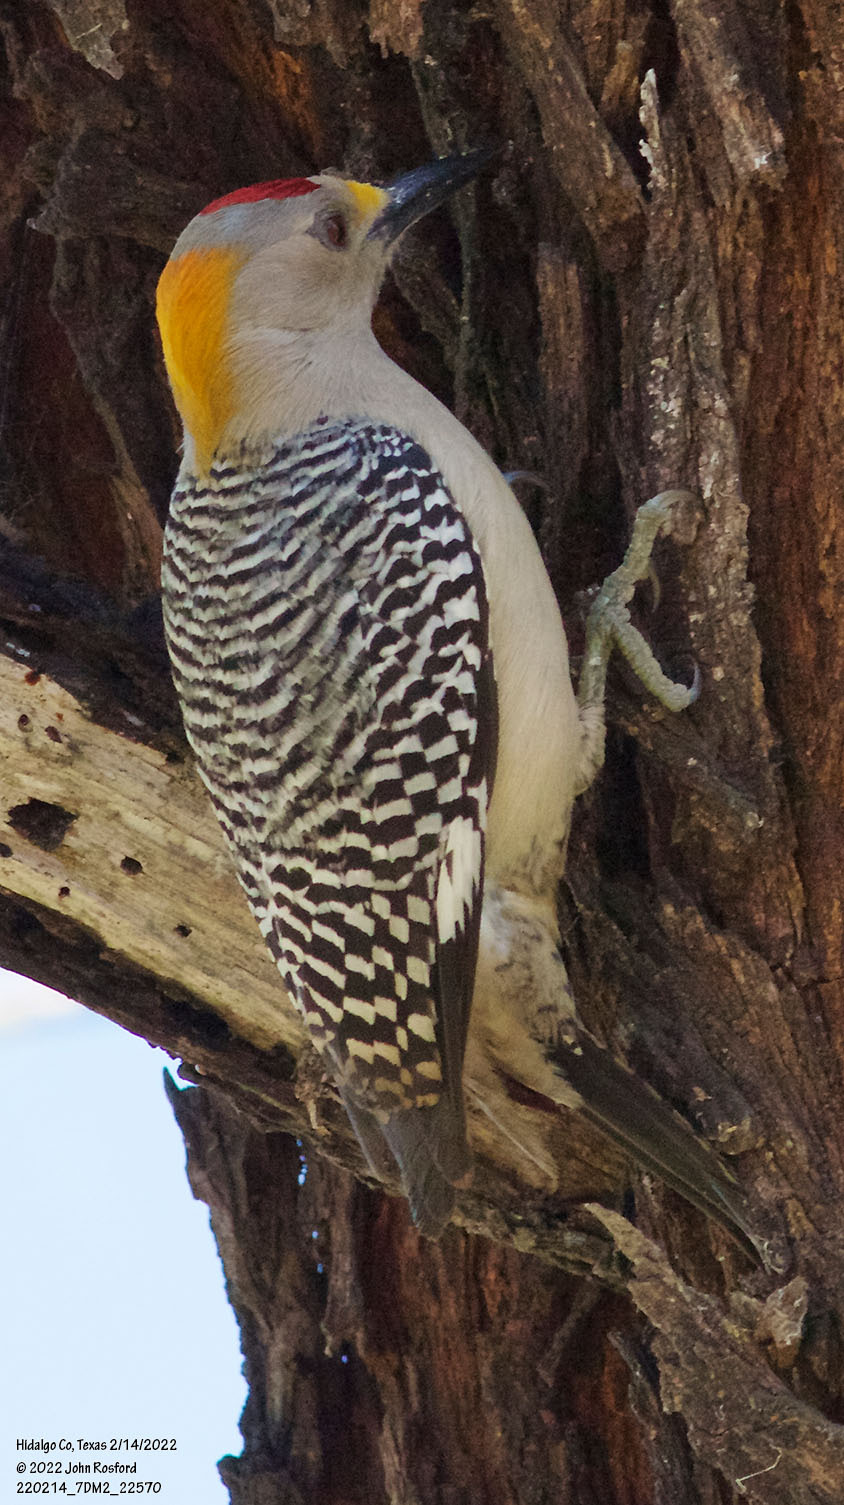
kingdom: Animalia
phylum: Chordata
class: Aves
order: Piciformes
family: Picidae
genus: Melanerpes
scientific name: Melanerpes aurifrons
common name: Golden-fronted woodpecker
